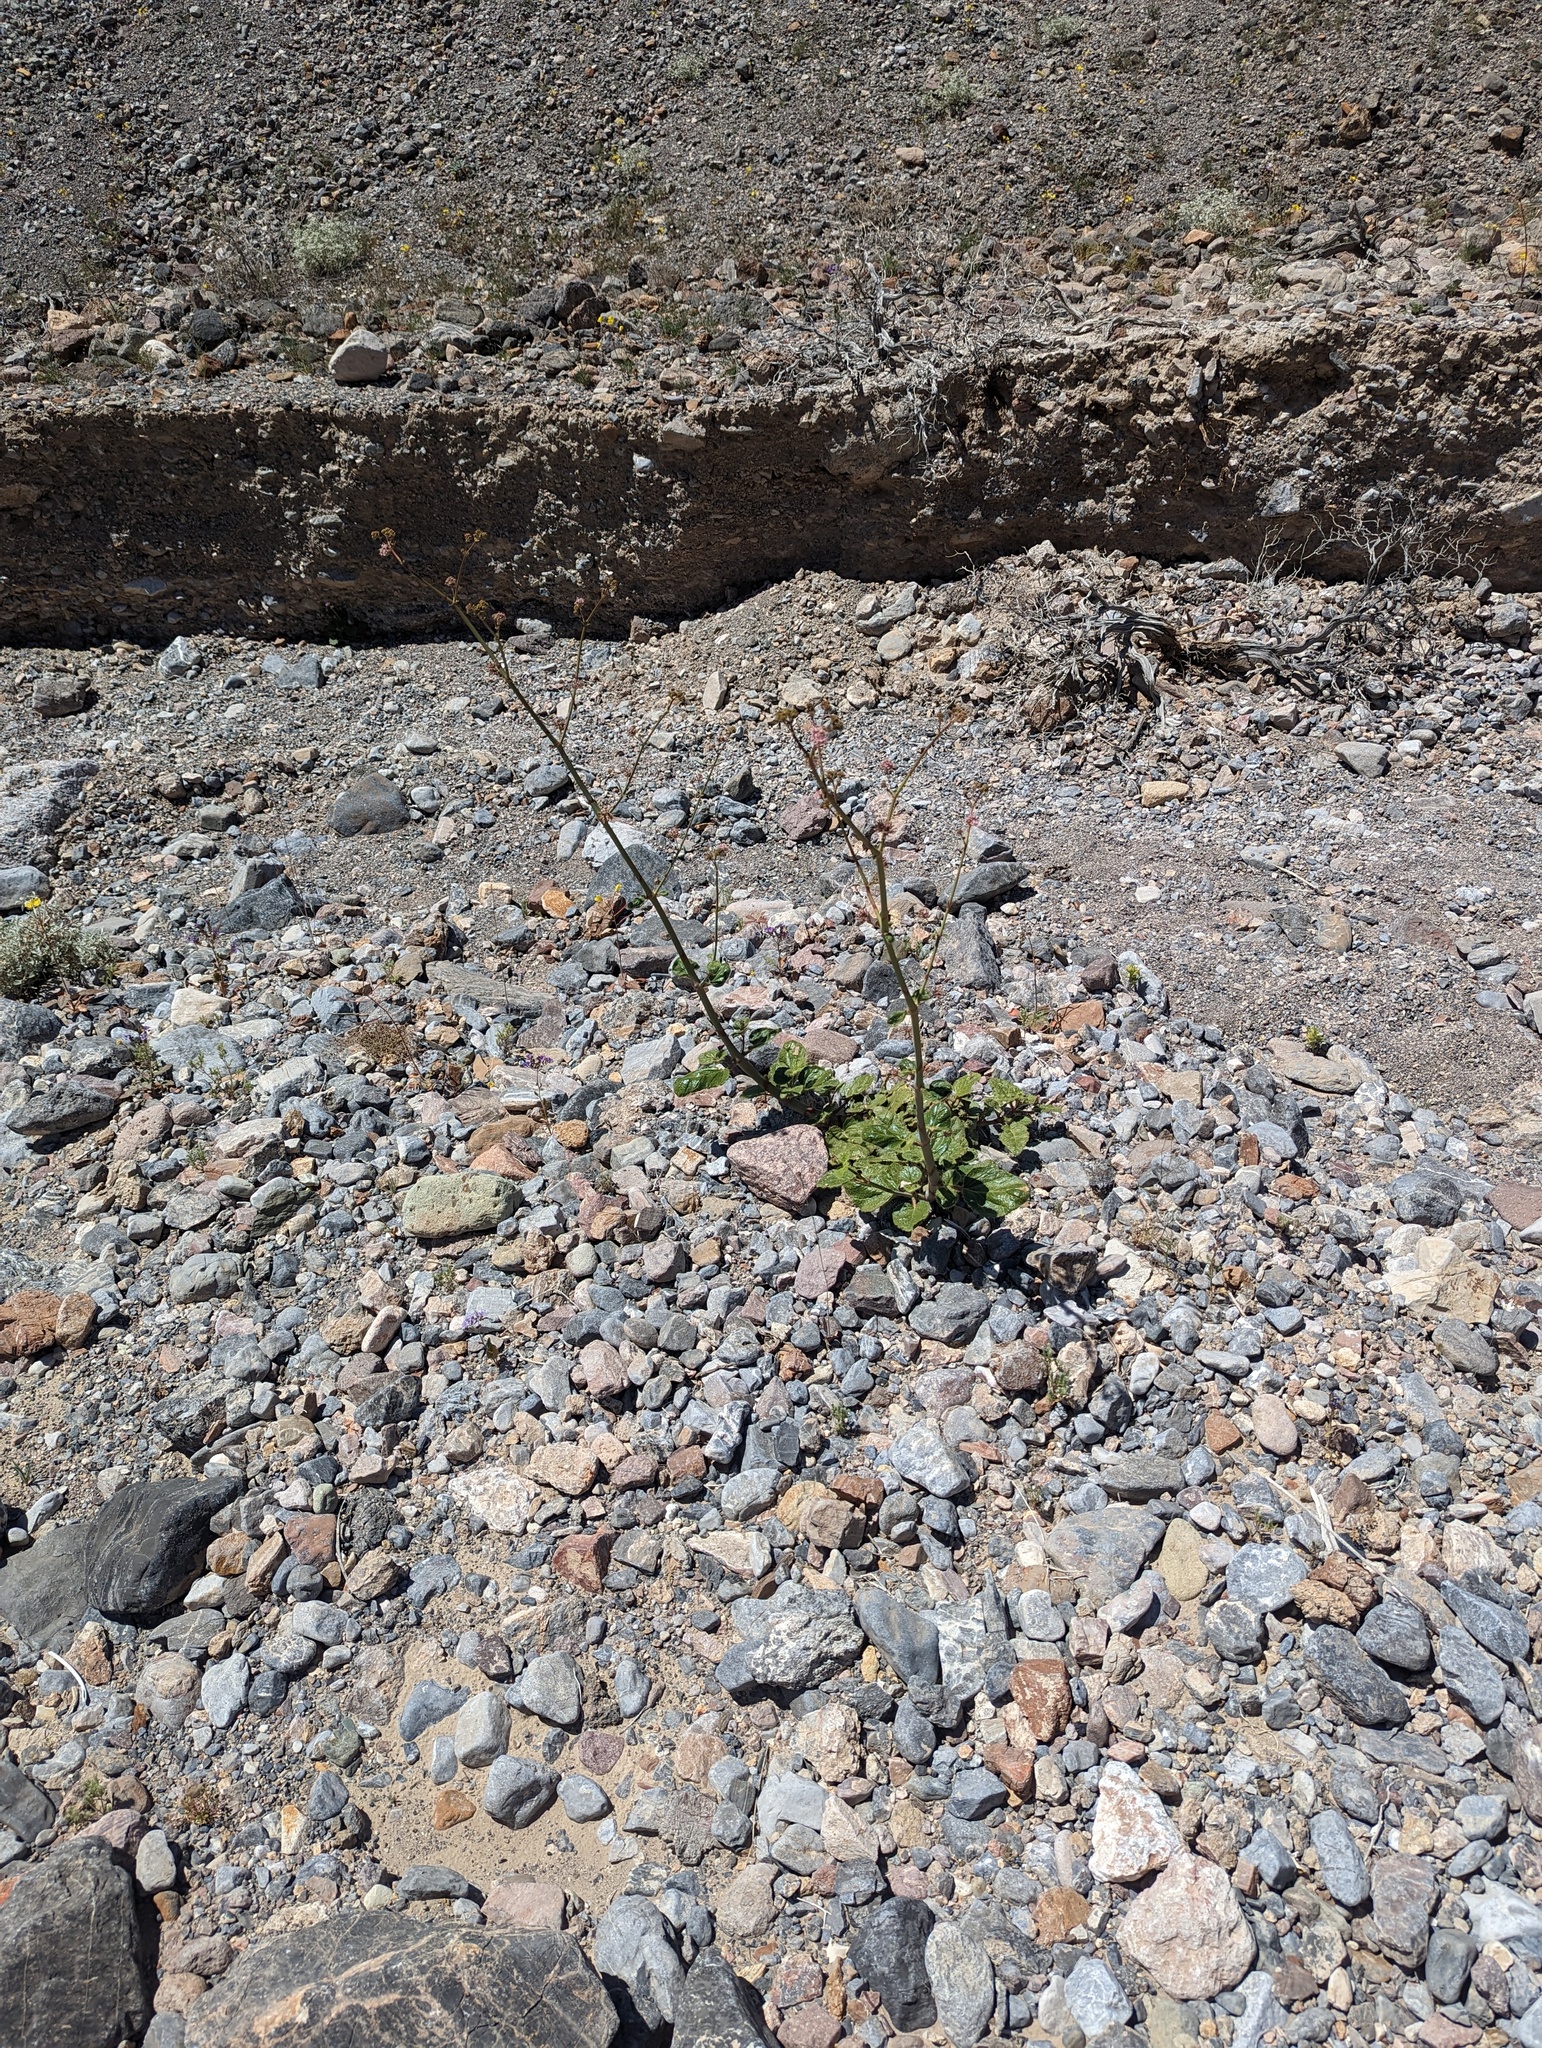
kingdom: Plantae
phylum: Tracheophyta
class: Magnoliopsida
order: Caryophyllales
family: Nyctaginaceae
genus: Anulocaulis
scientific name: Anulocaulis annulatus
